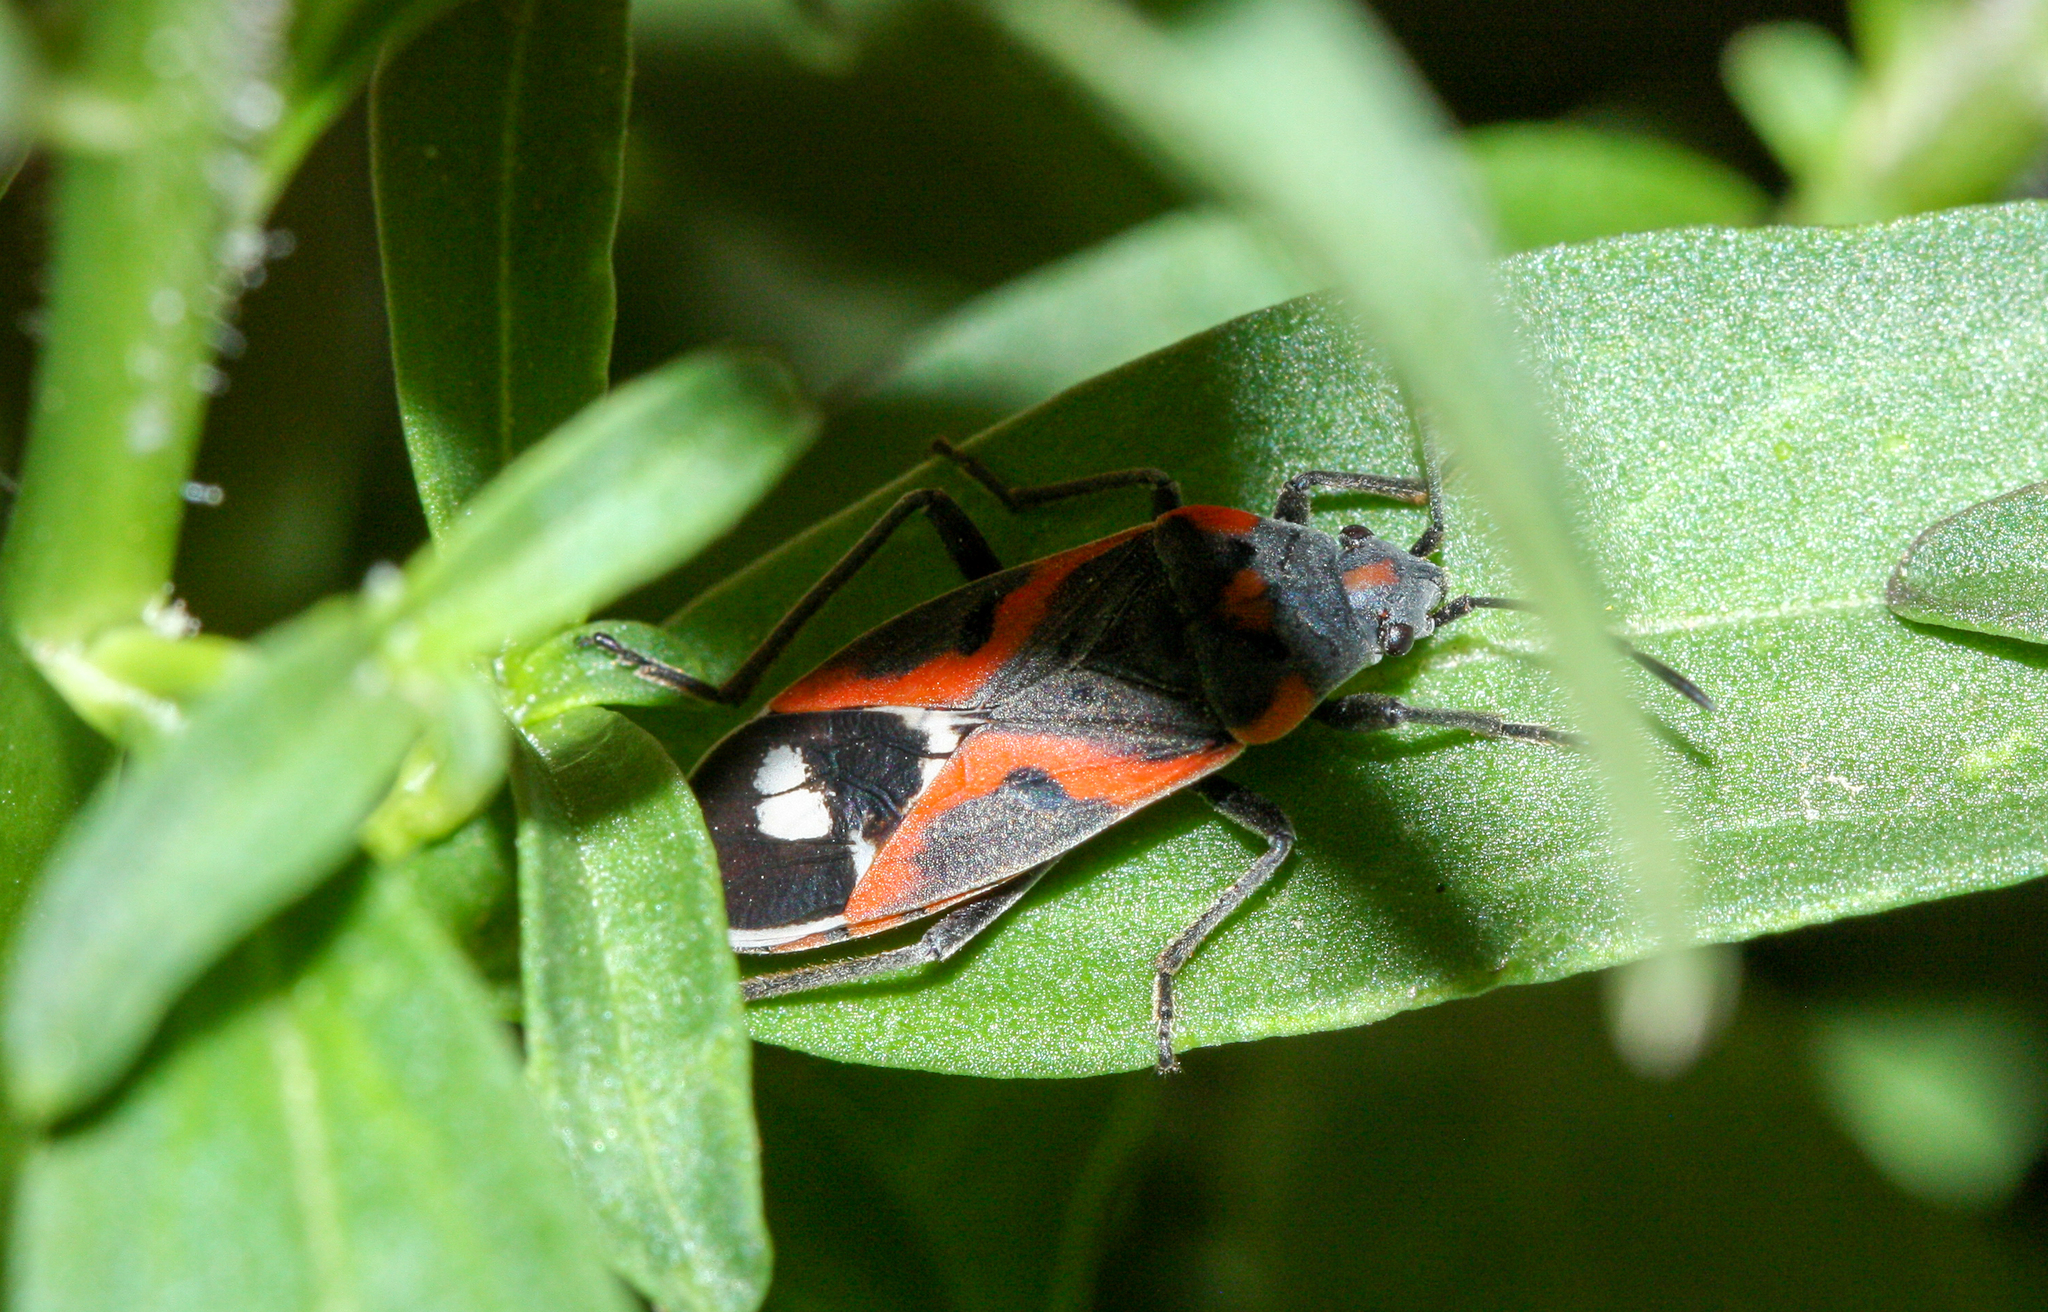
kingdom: Animalia
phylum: Arthropoda
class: Insecta
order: Hemiptera
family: Lygaeidae
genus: Lygaeus
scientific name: Lygaeus kalmii
